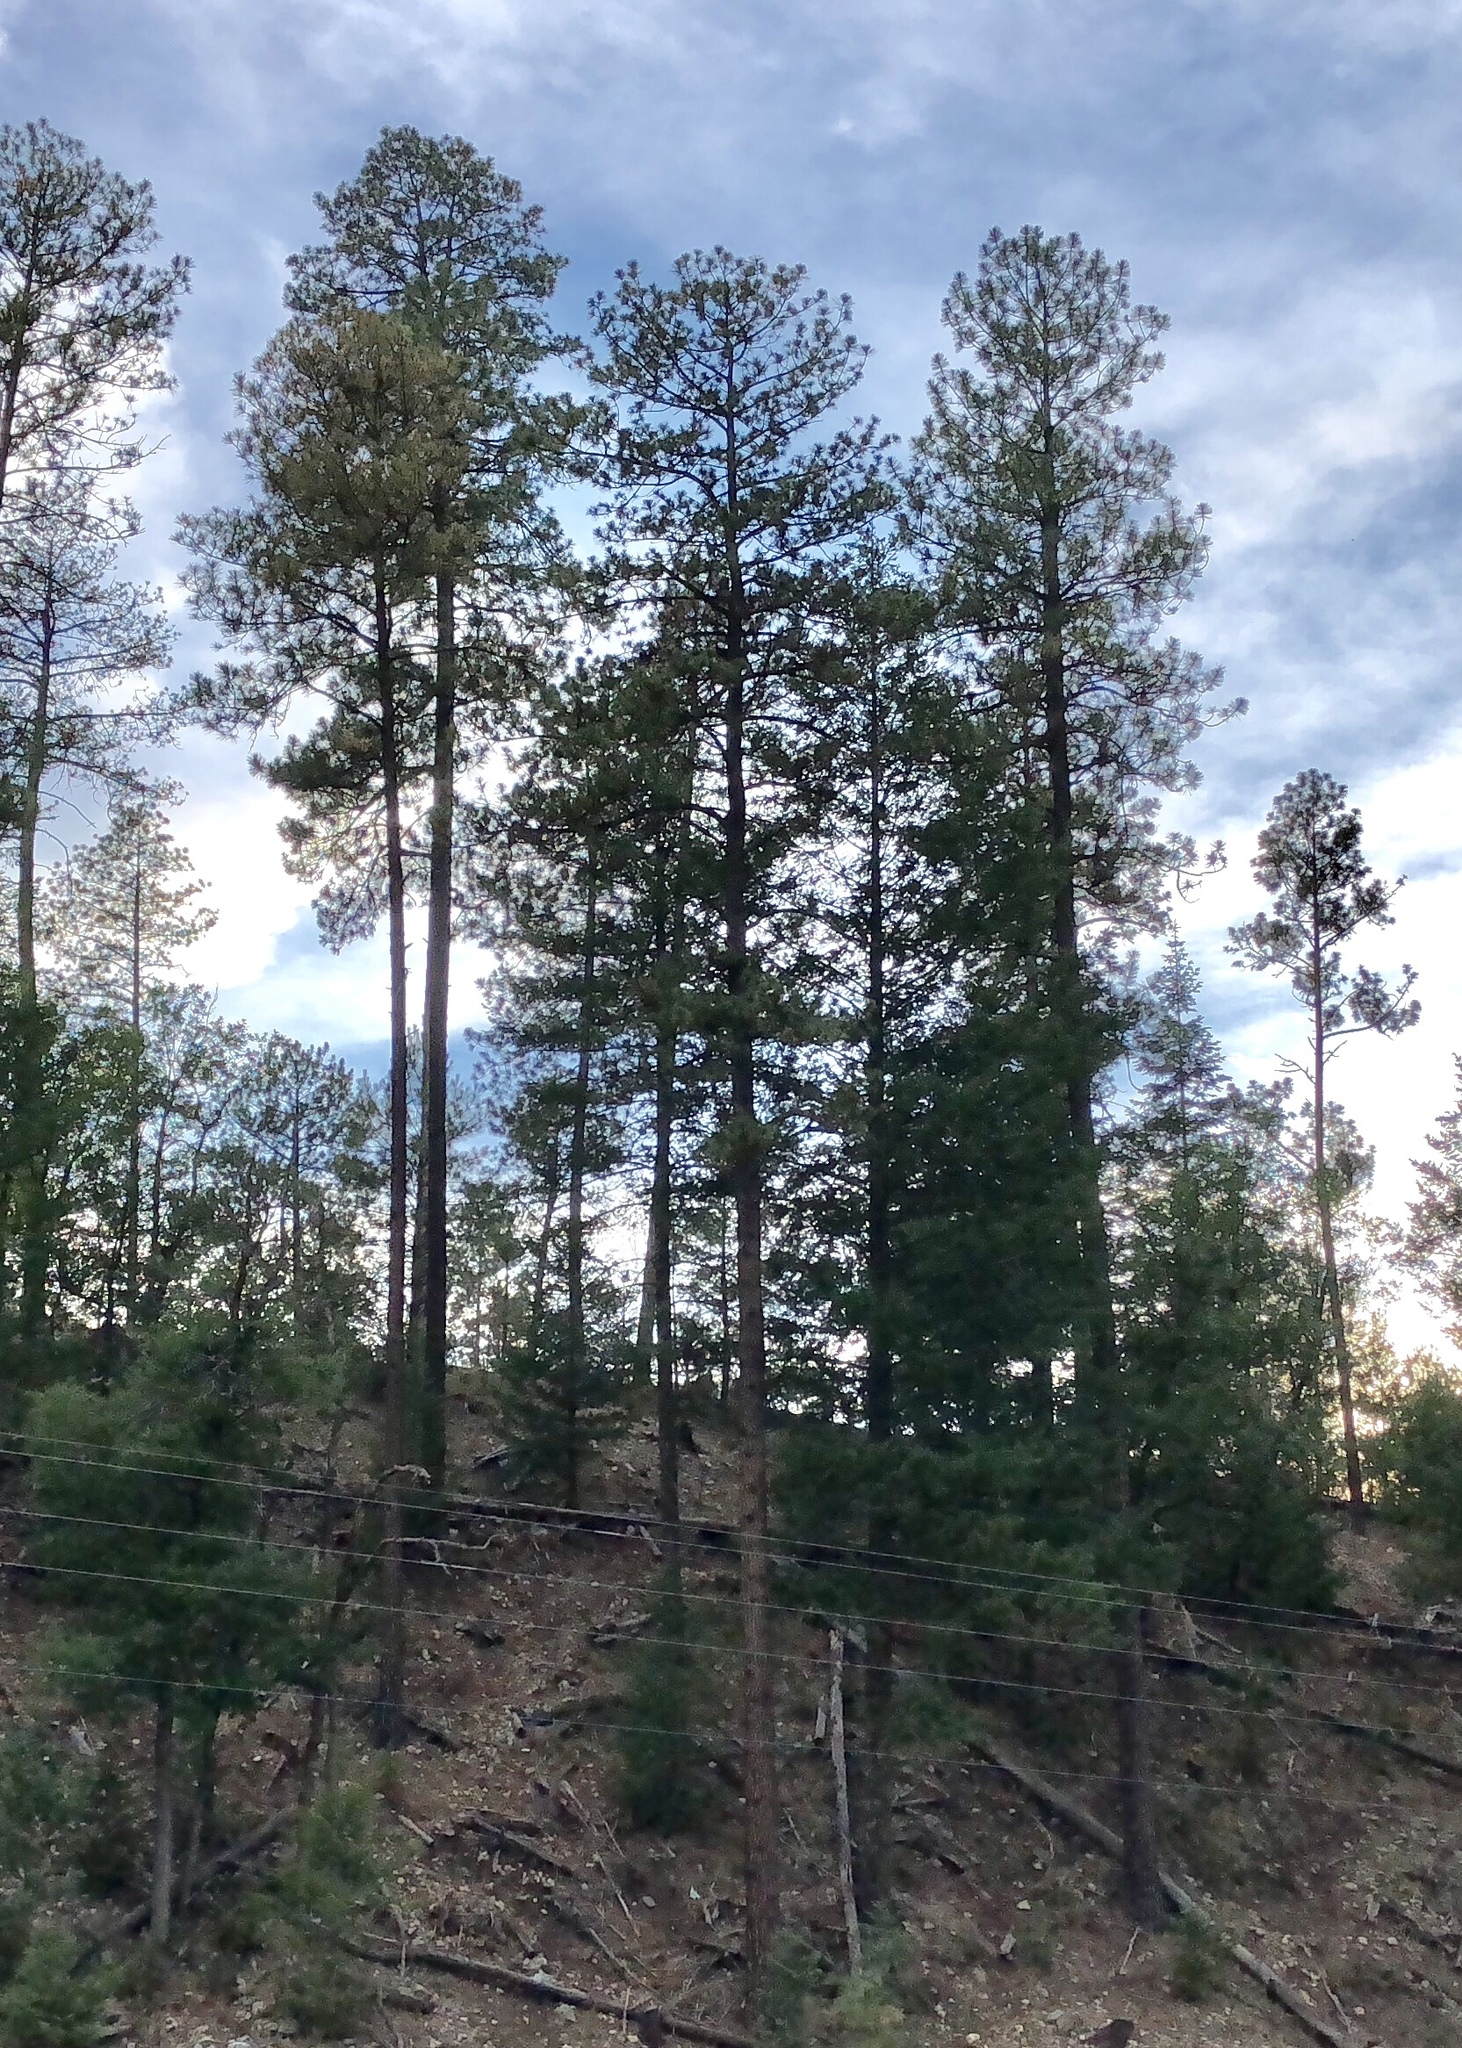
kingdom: Plantae
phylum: Tracheophyta
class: Pinopsida
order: Pinales
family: Pinaceae
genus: Pinus
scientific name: Pinus ponderosa
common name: Western yellow-pine
